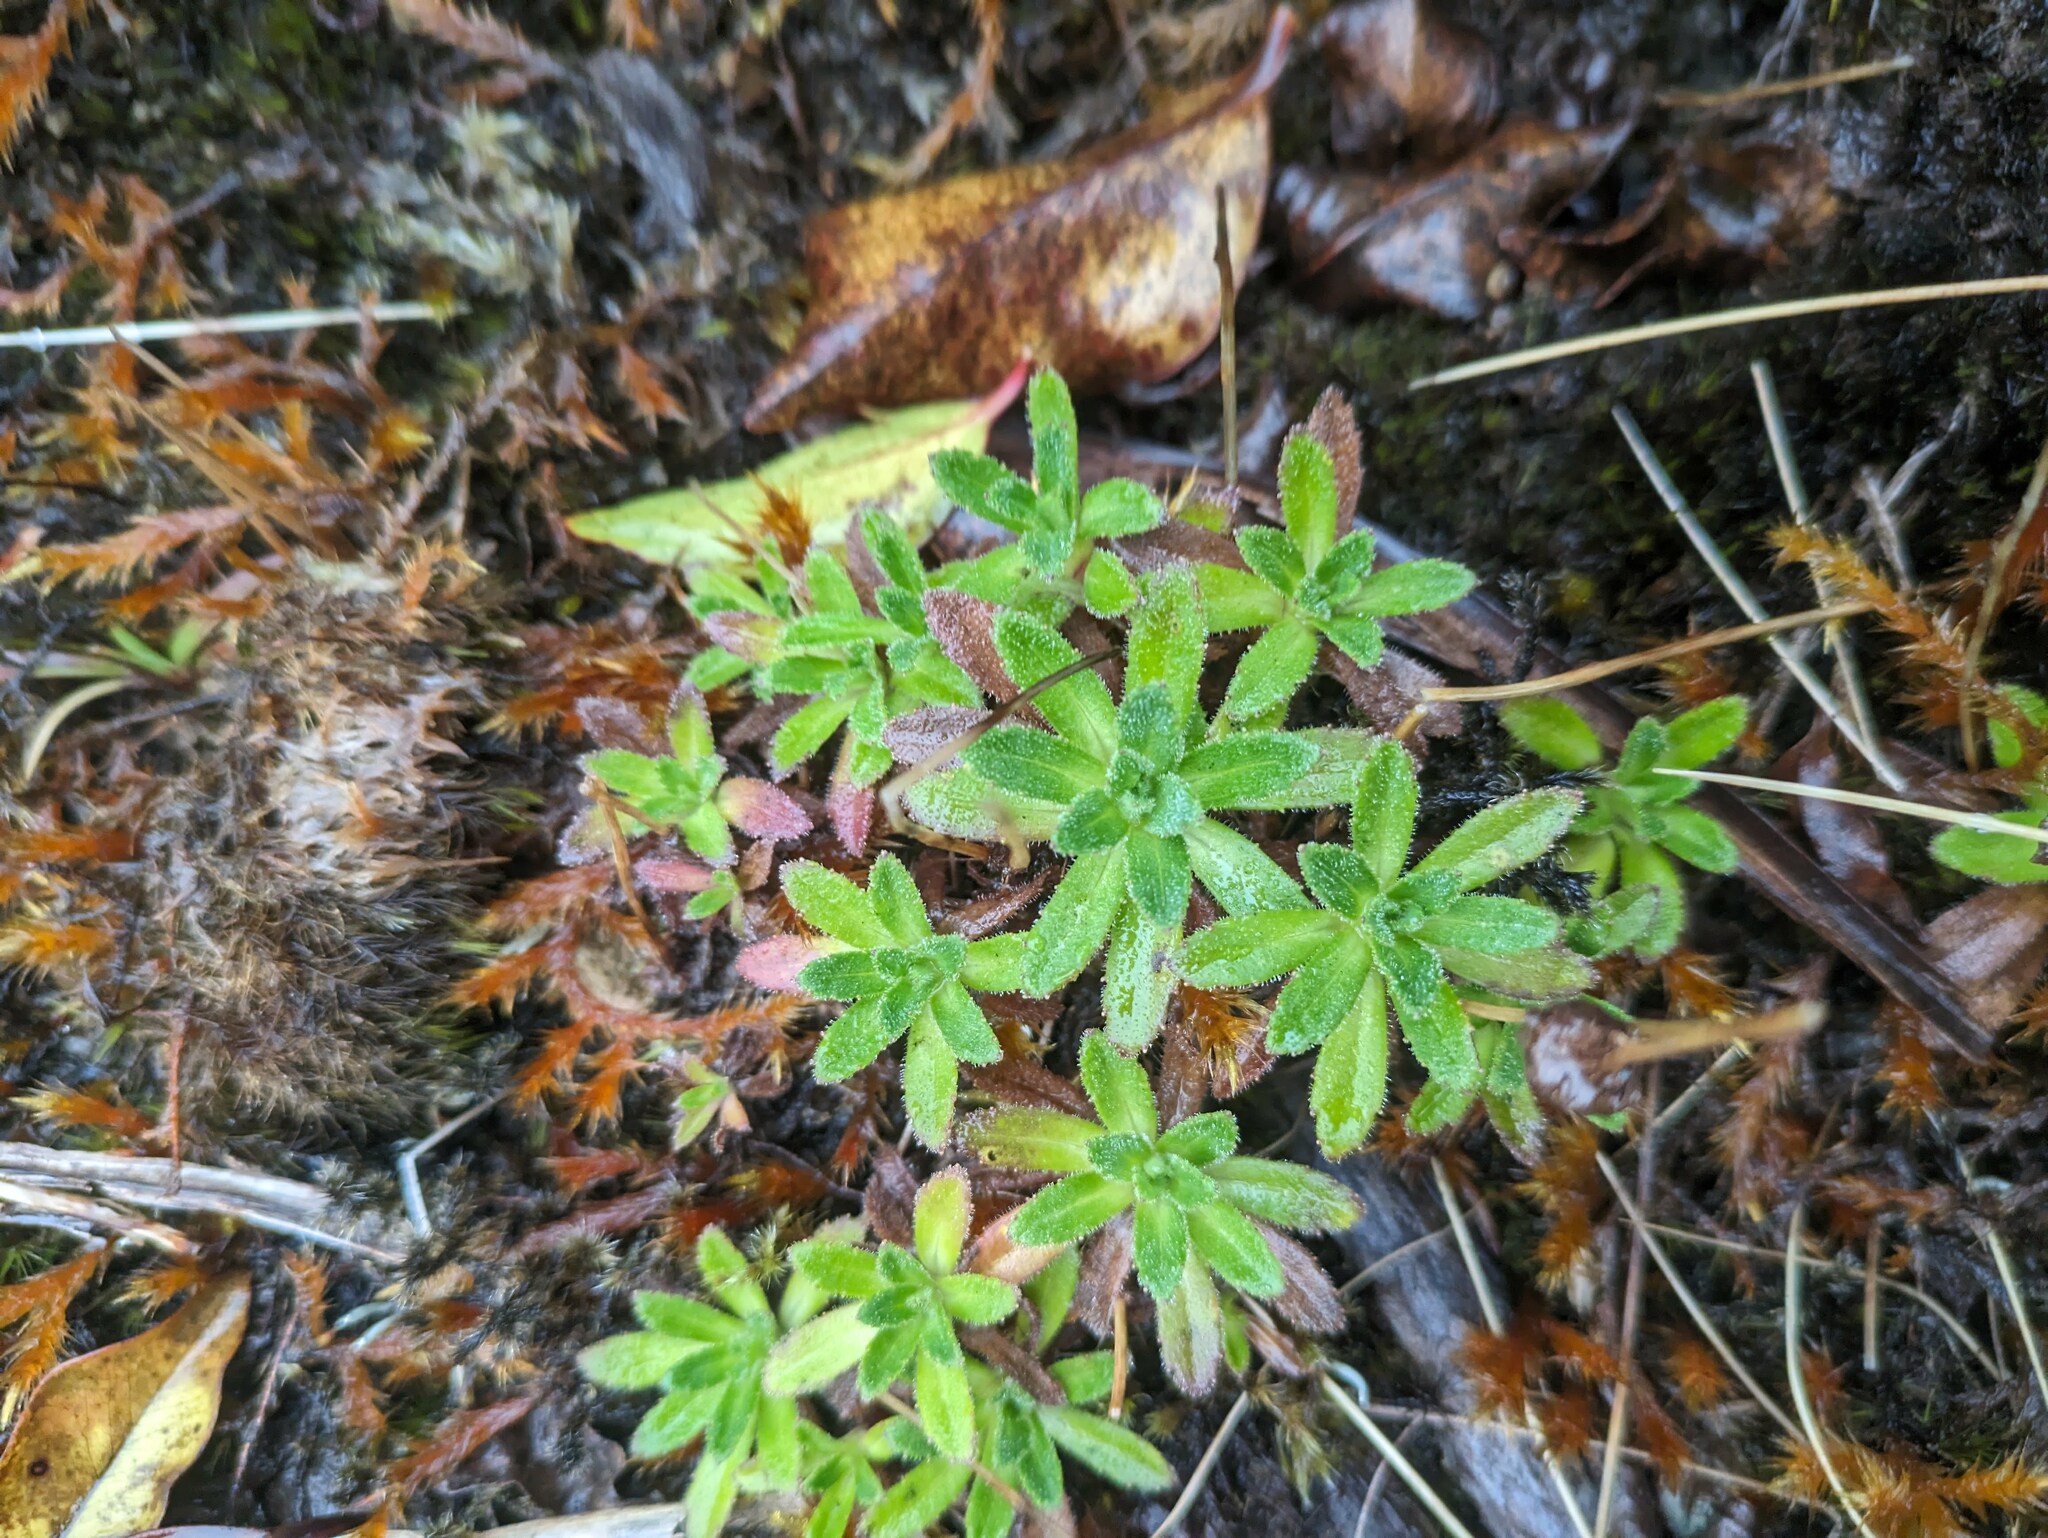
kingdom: Plantae
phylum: Tracheophyta
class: Magnoliopsida
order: Asterales
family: Asteraceae
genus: Helodeaster
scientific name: Helodeaster helenae
